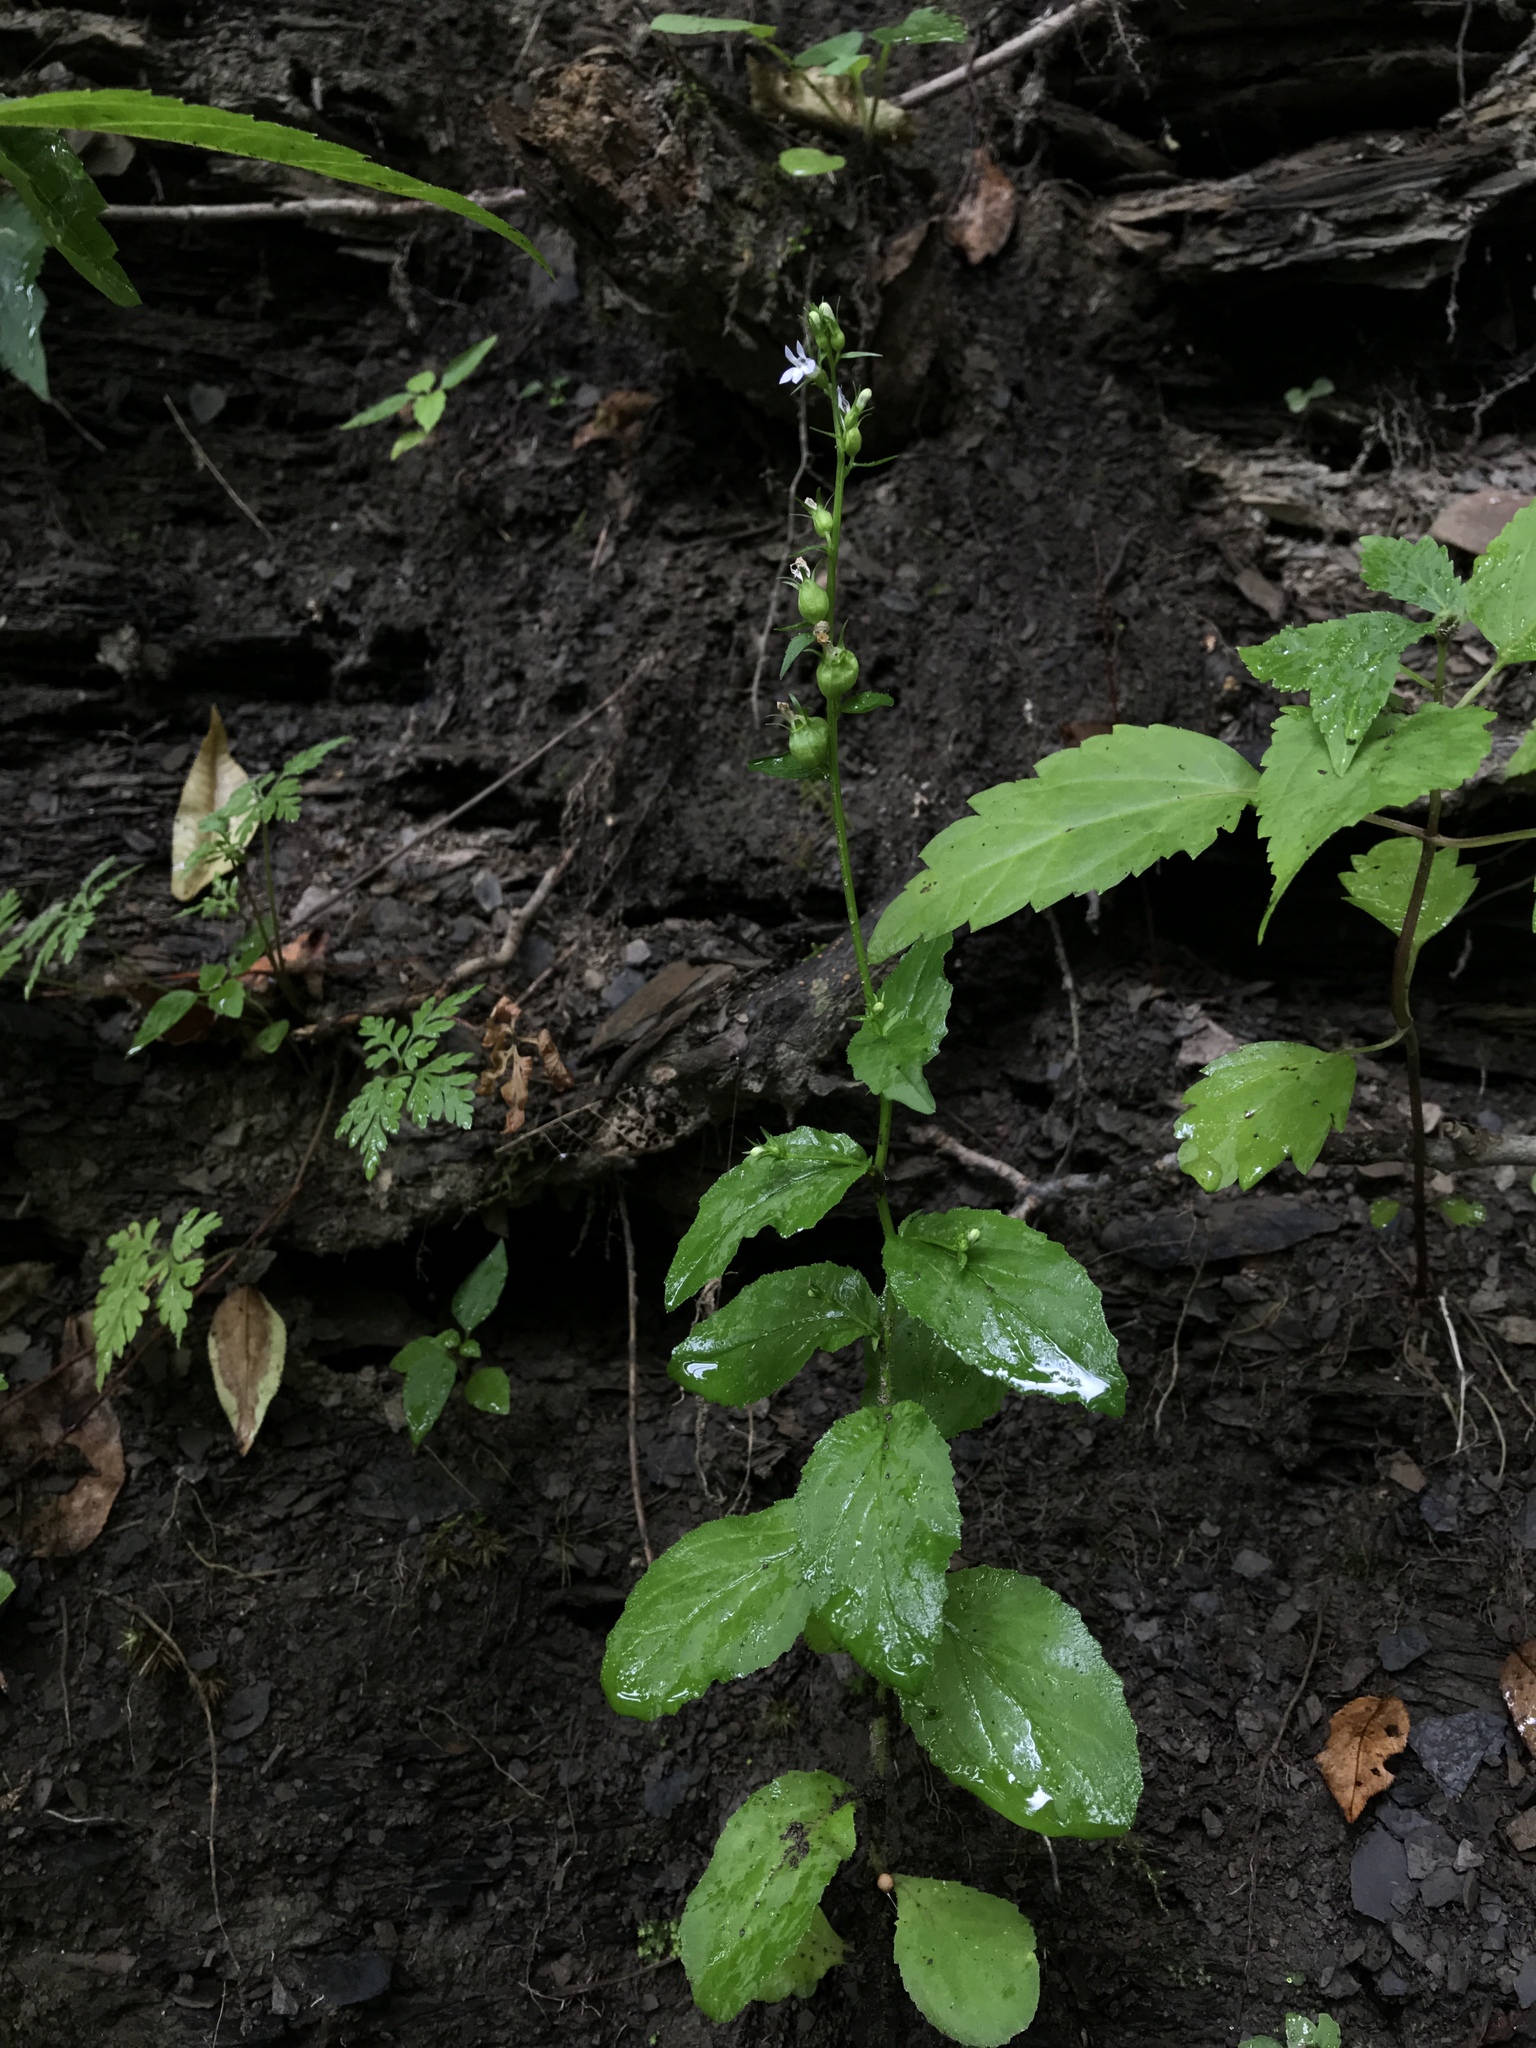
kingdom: Plantae
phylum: Tracheophyta
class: Magnoliopsida
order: Asterales
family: Campanulaceae
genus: Lobelia
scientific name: Lobelia inflata
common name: Indian tobacco
